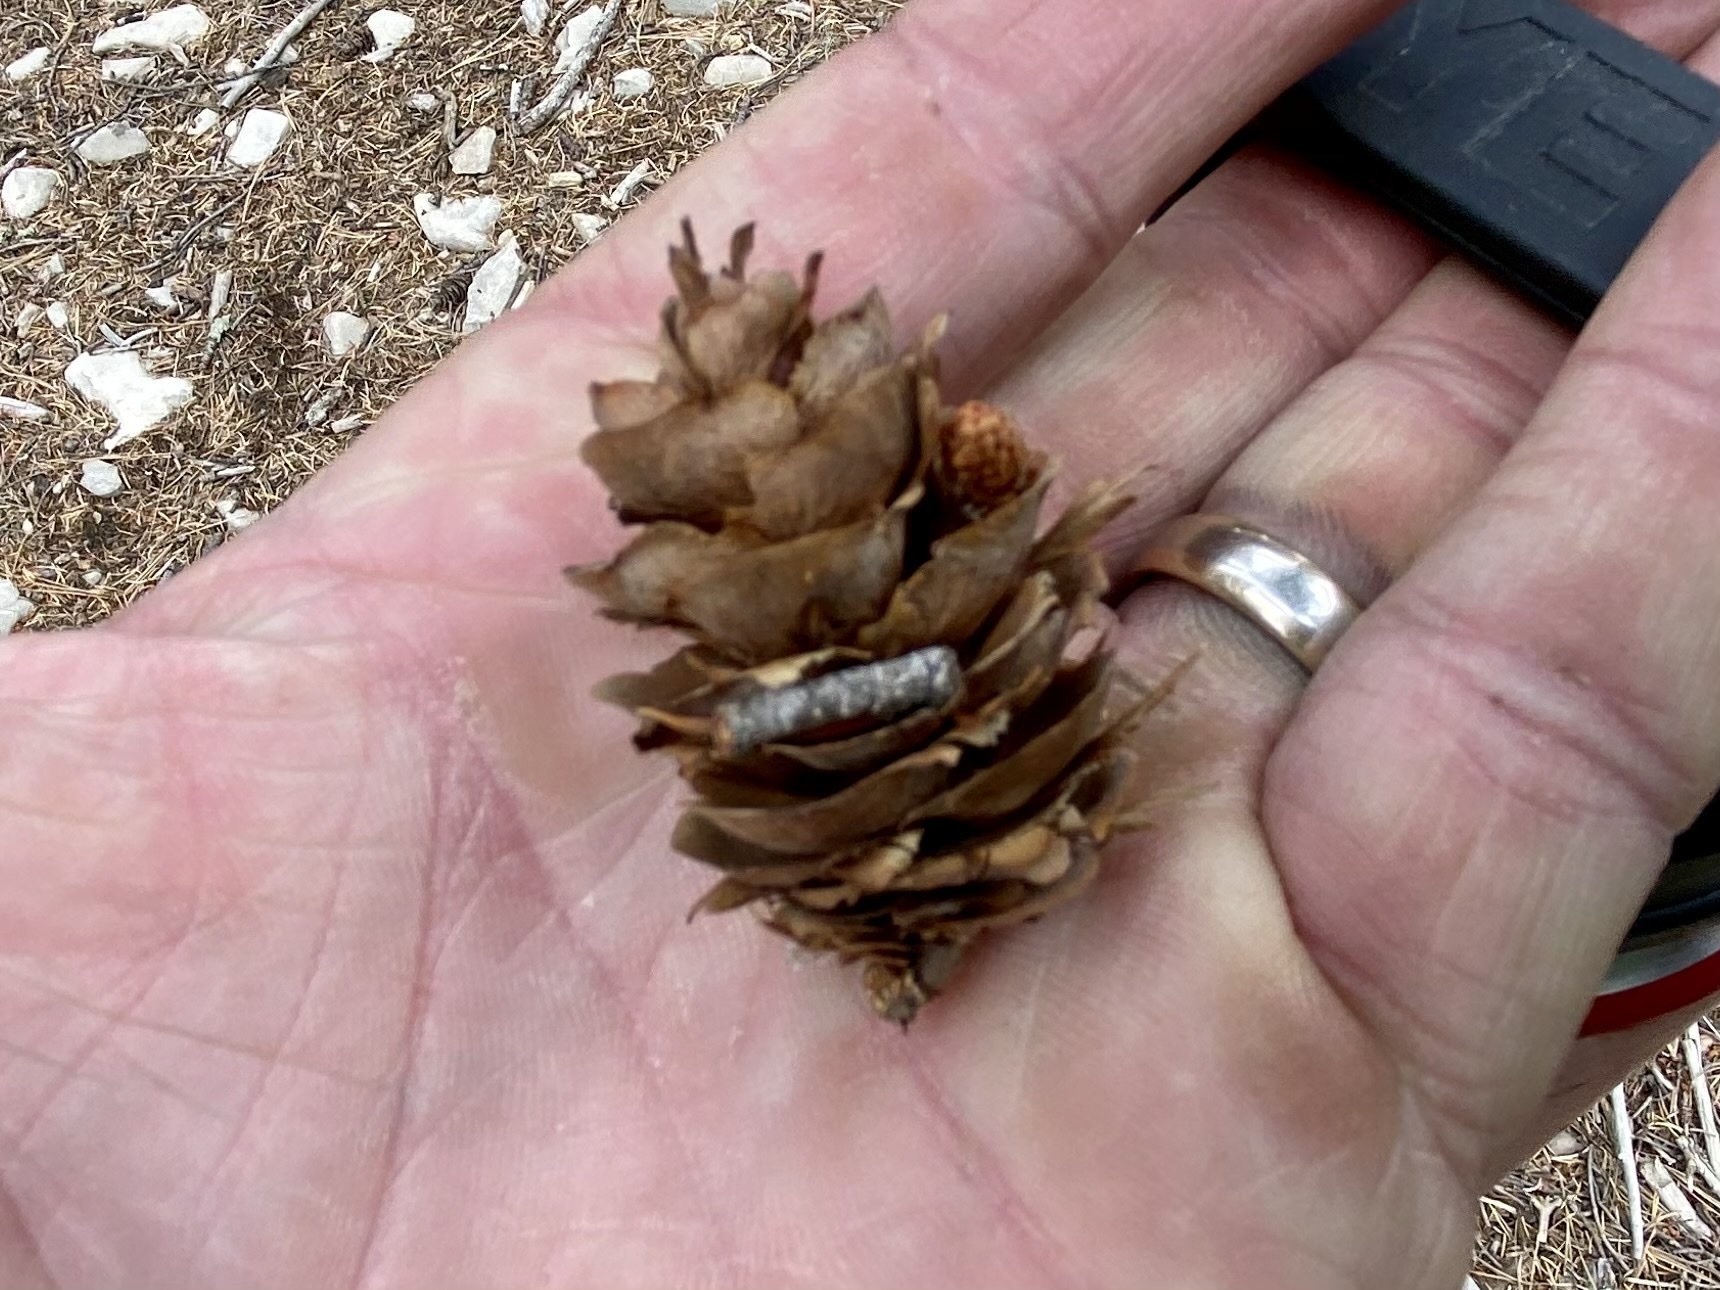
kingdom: Plantae
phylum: Tracheophyta
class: Pinopsida
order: Pinales
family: Pinaceae
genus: Pseudotsuga
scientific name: Pseudotsuga menziesii
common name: Douglas fir
